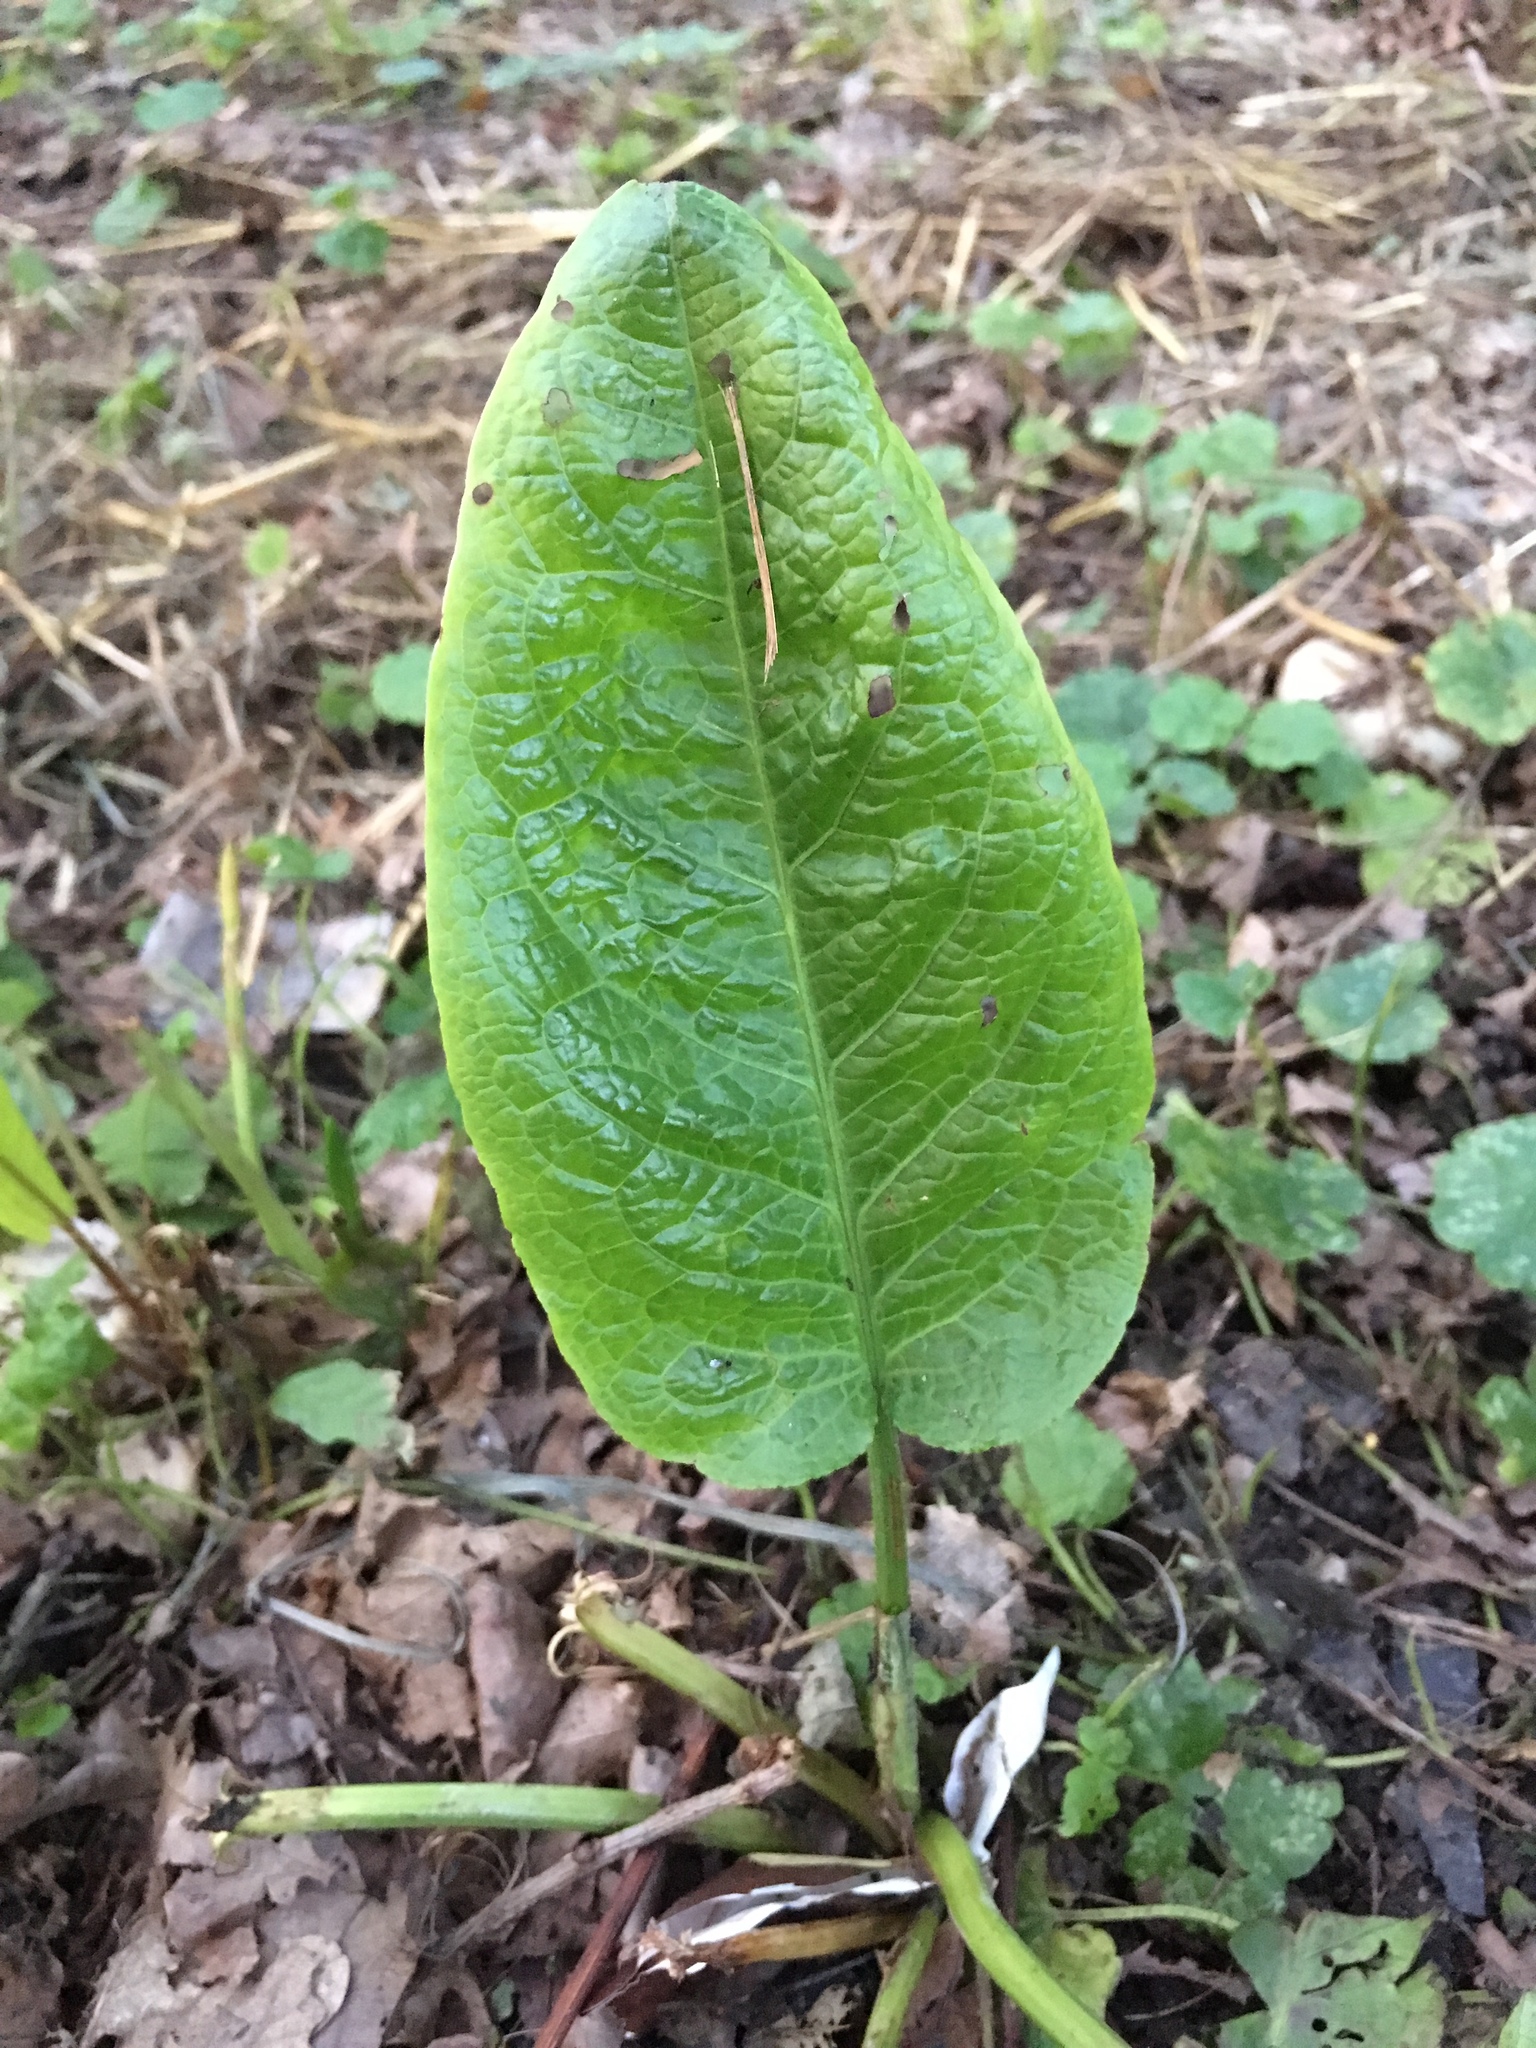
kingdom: Plantae
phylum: Tracheophyta
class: Magnoliopsida
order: Caryophyllales
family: Polygonaceae
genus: Rumex
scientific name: Rumex obtusifolius
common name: Bitter dock
